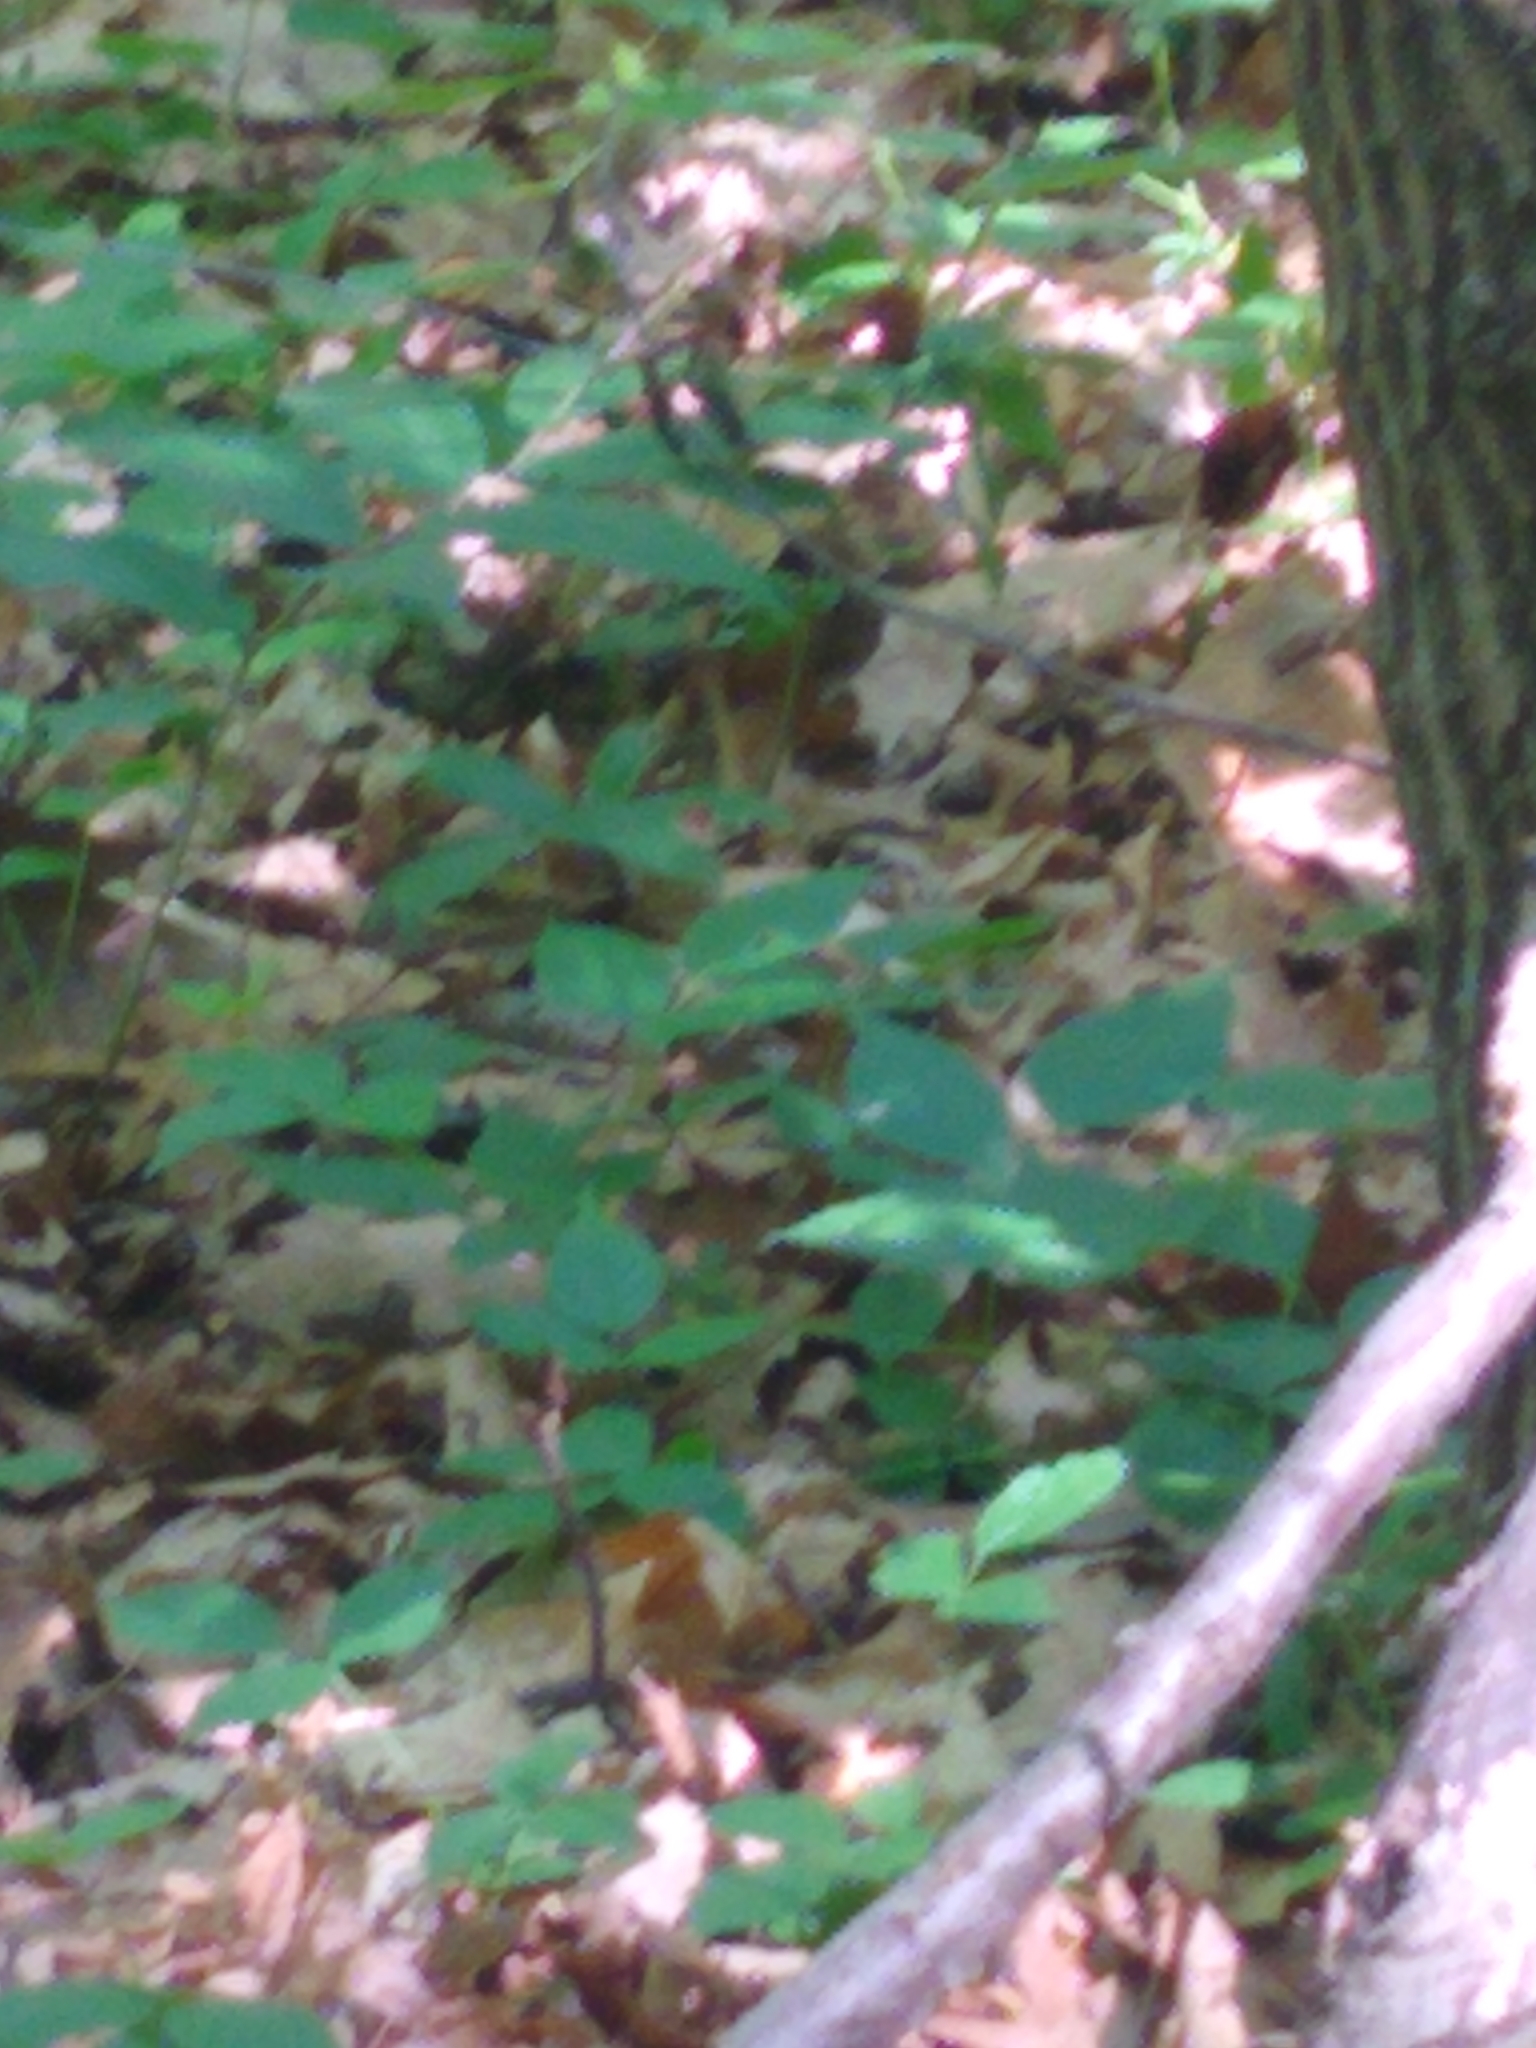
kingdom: Animalia
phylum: Chordata
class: Mammalia
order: Rodentia
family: Sciuridae
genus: Tamias
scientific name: Tamias striatus
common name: Eastern chipmunk
